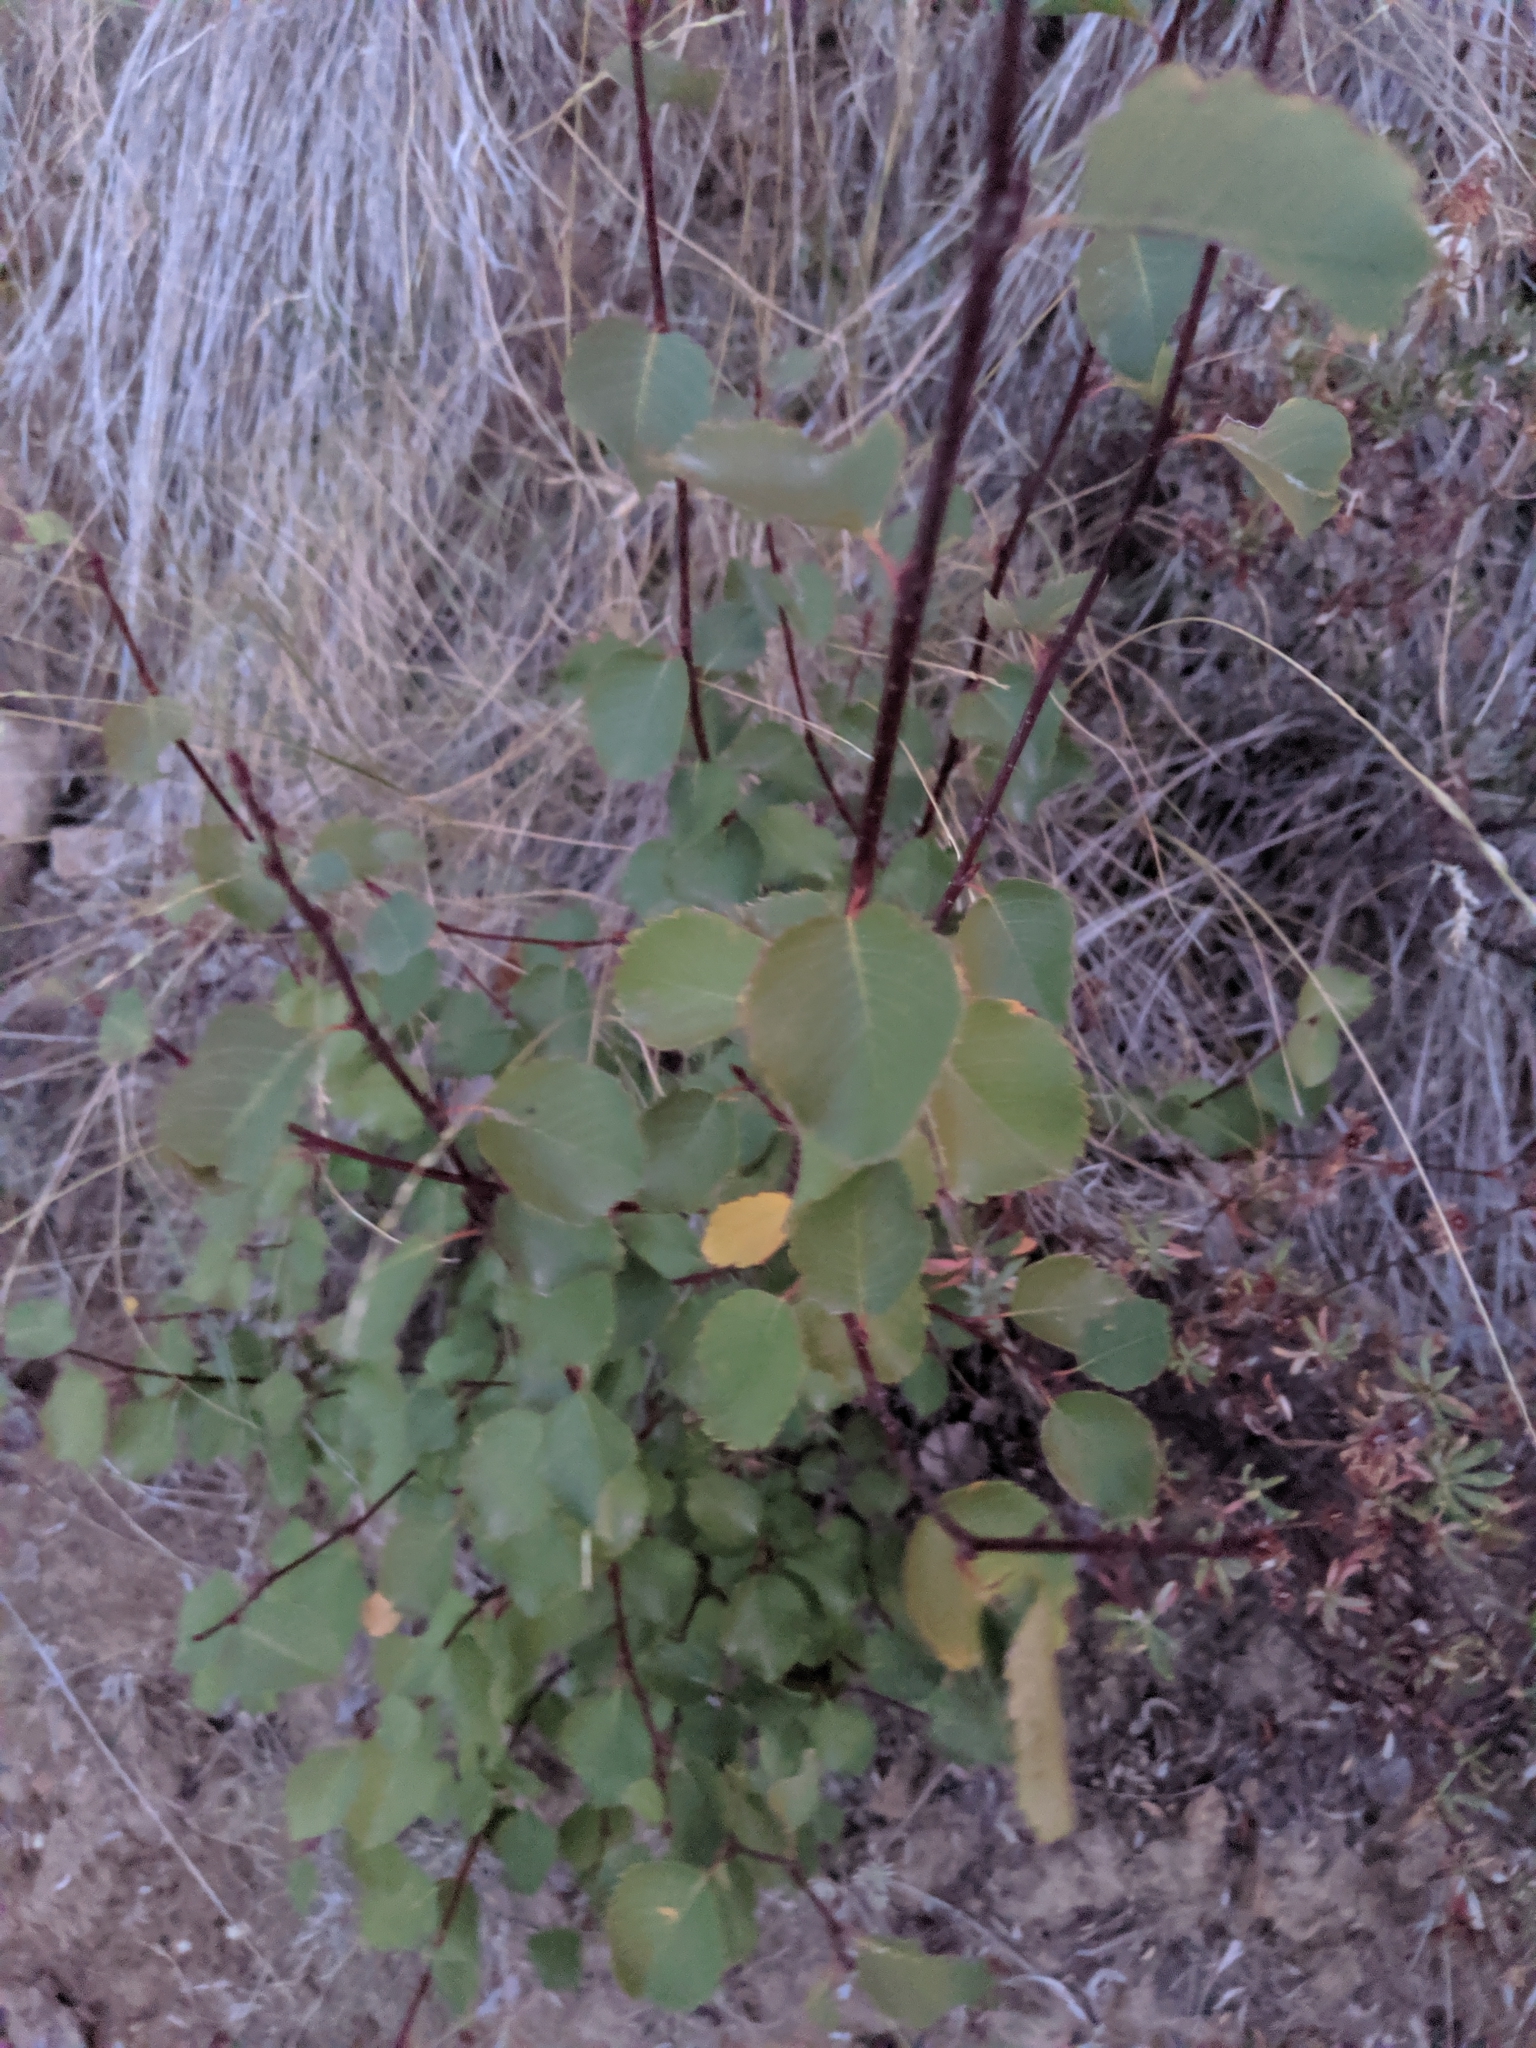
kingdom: Plantae
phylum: Tracheophyta
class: Magnoliopsida
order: Rosales
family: Rosaceae
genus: Amelanchier
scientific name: Amelanchier alnifolia
